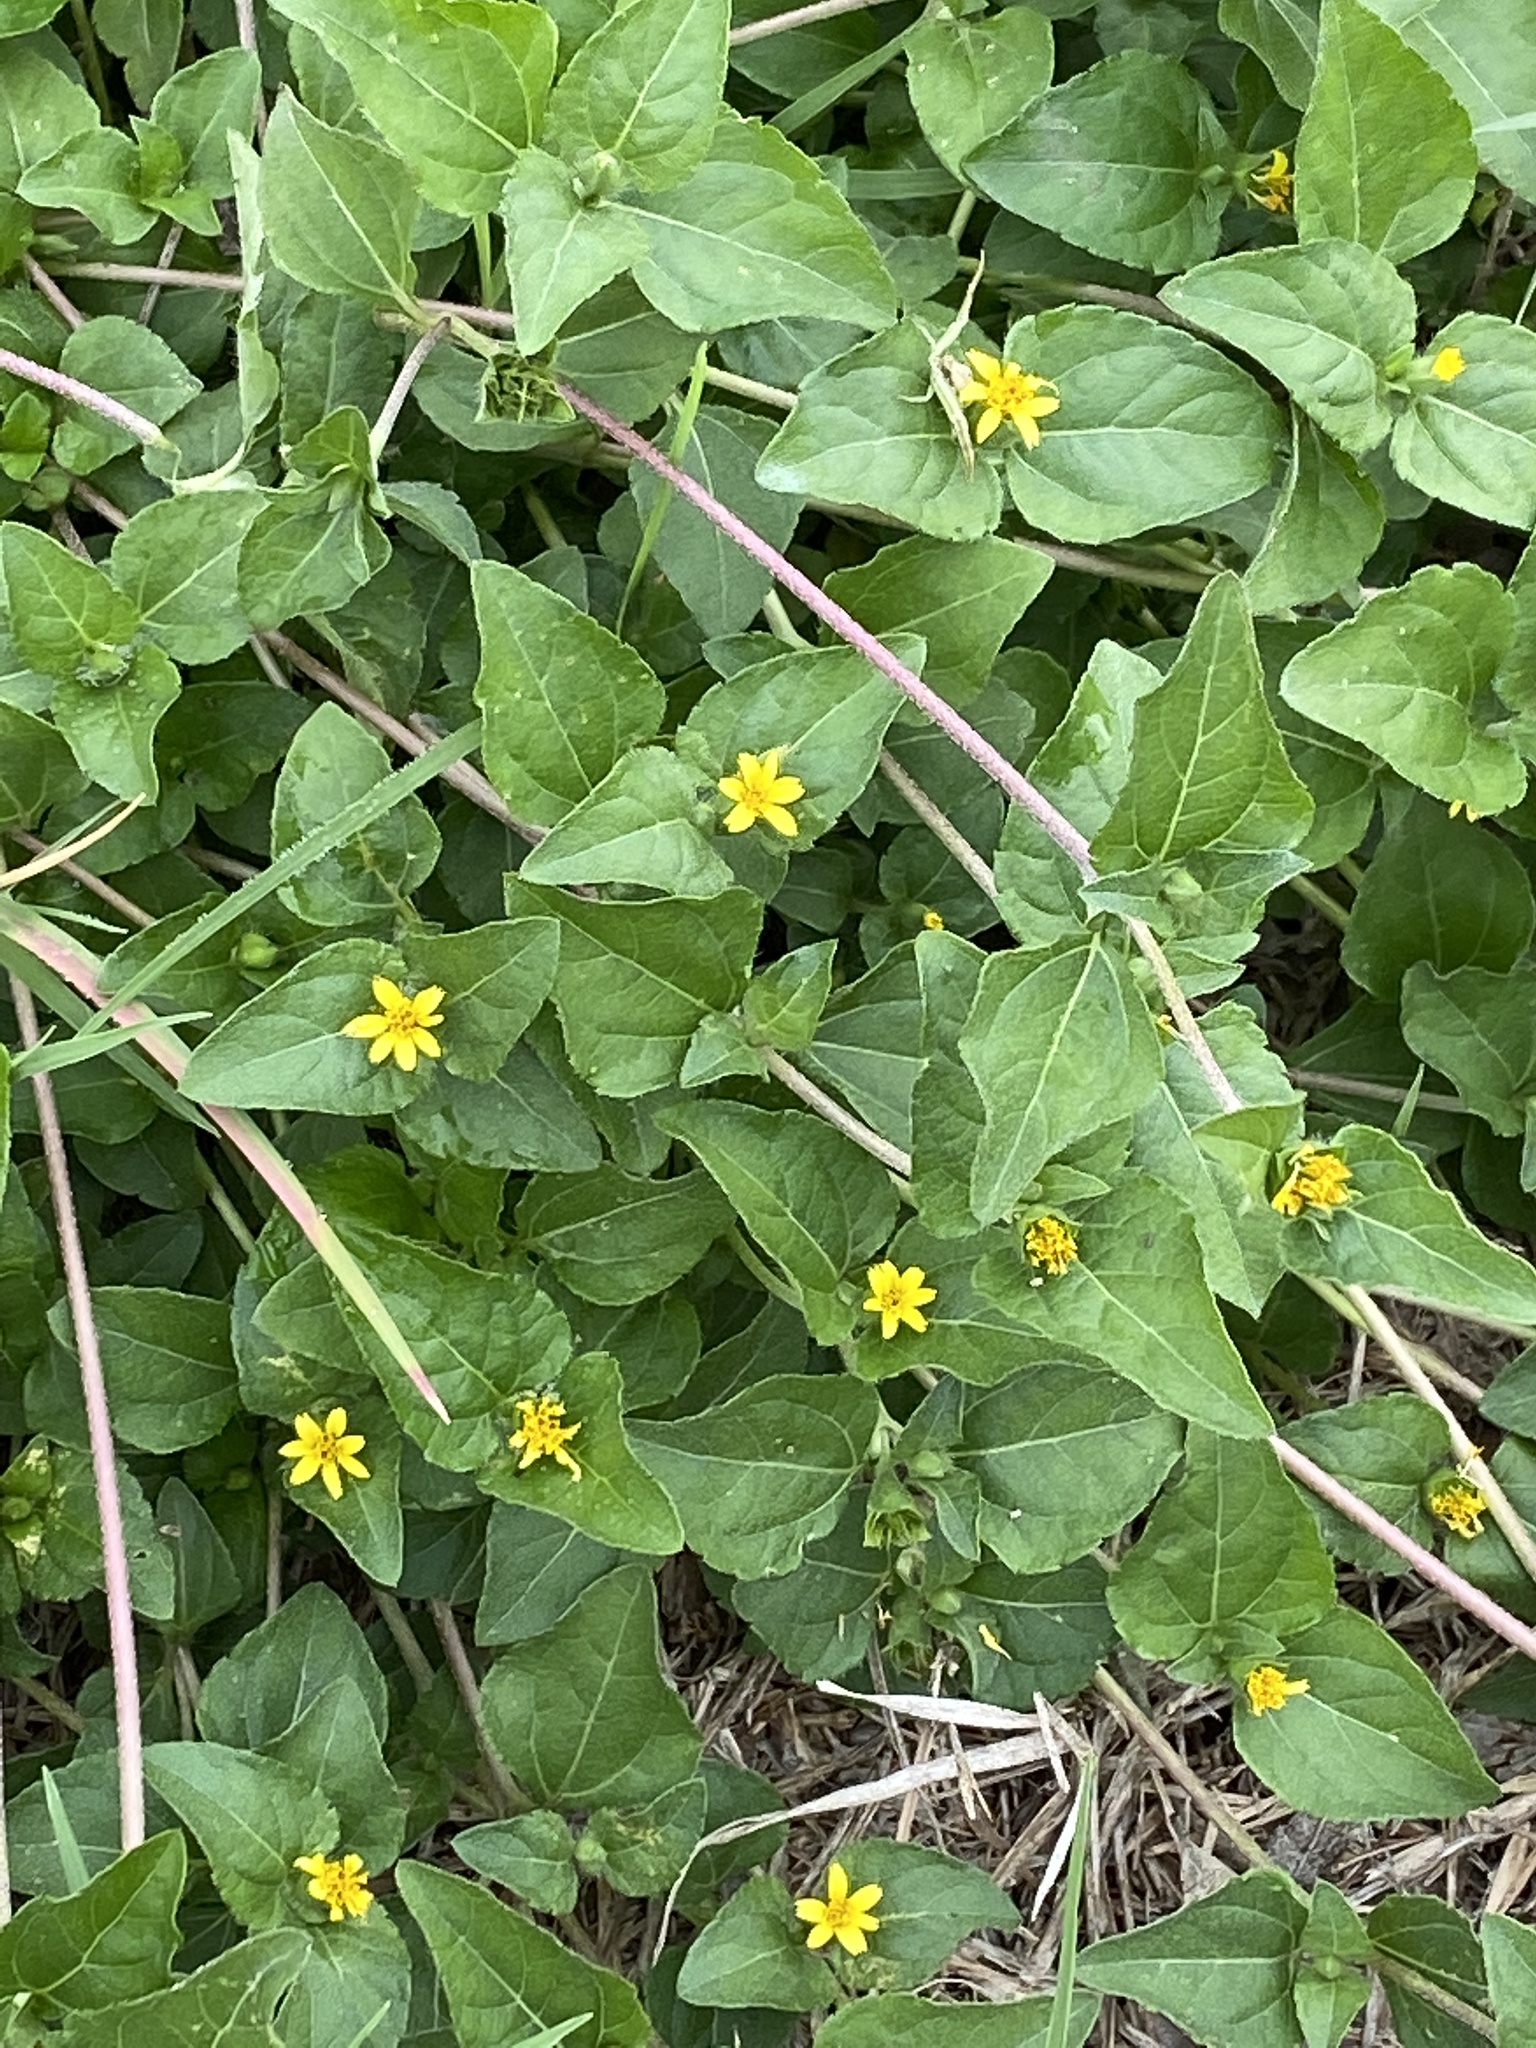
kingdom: Plantae
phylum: Tracheophyta
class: Magnoliopsida
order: Asterales
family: Asteraceae
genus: Calyptocarpus
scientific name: Calyptocarpus vialis
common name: Straggler daisy
